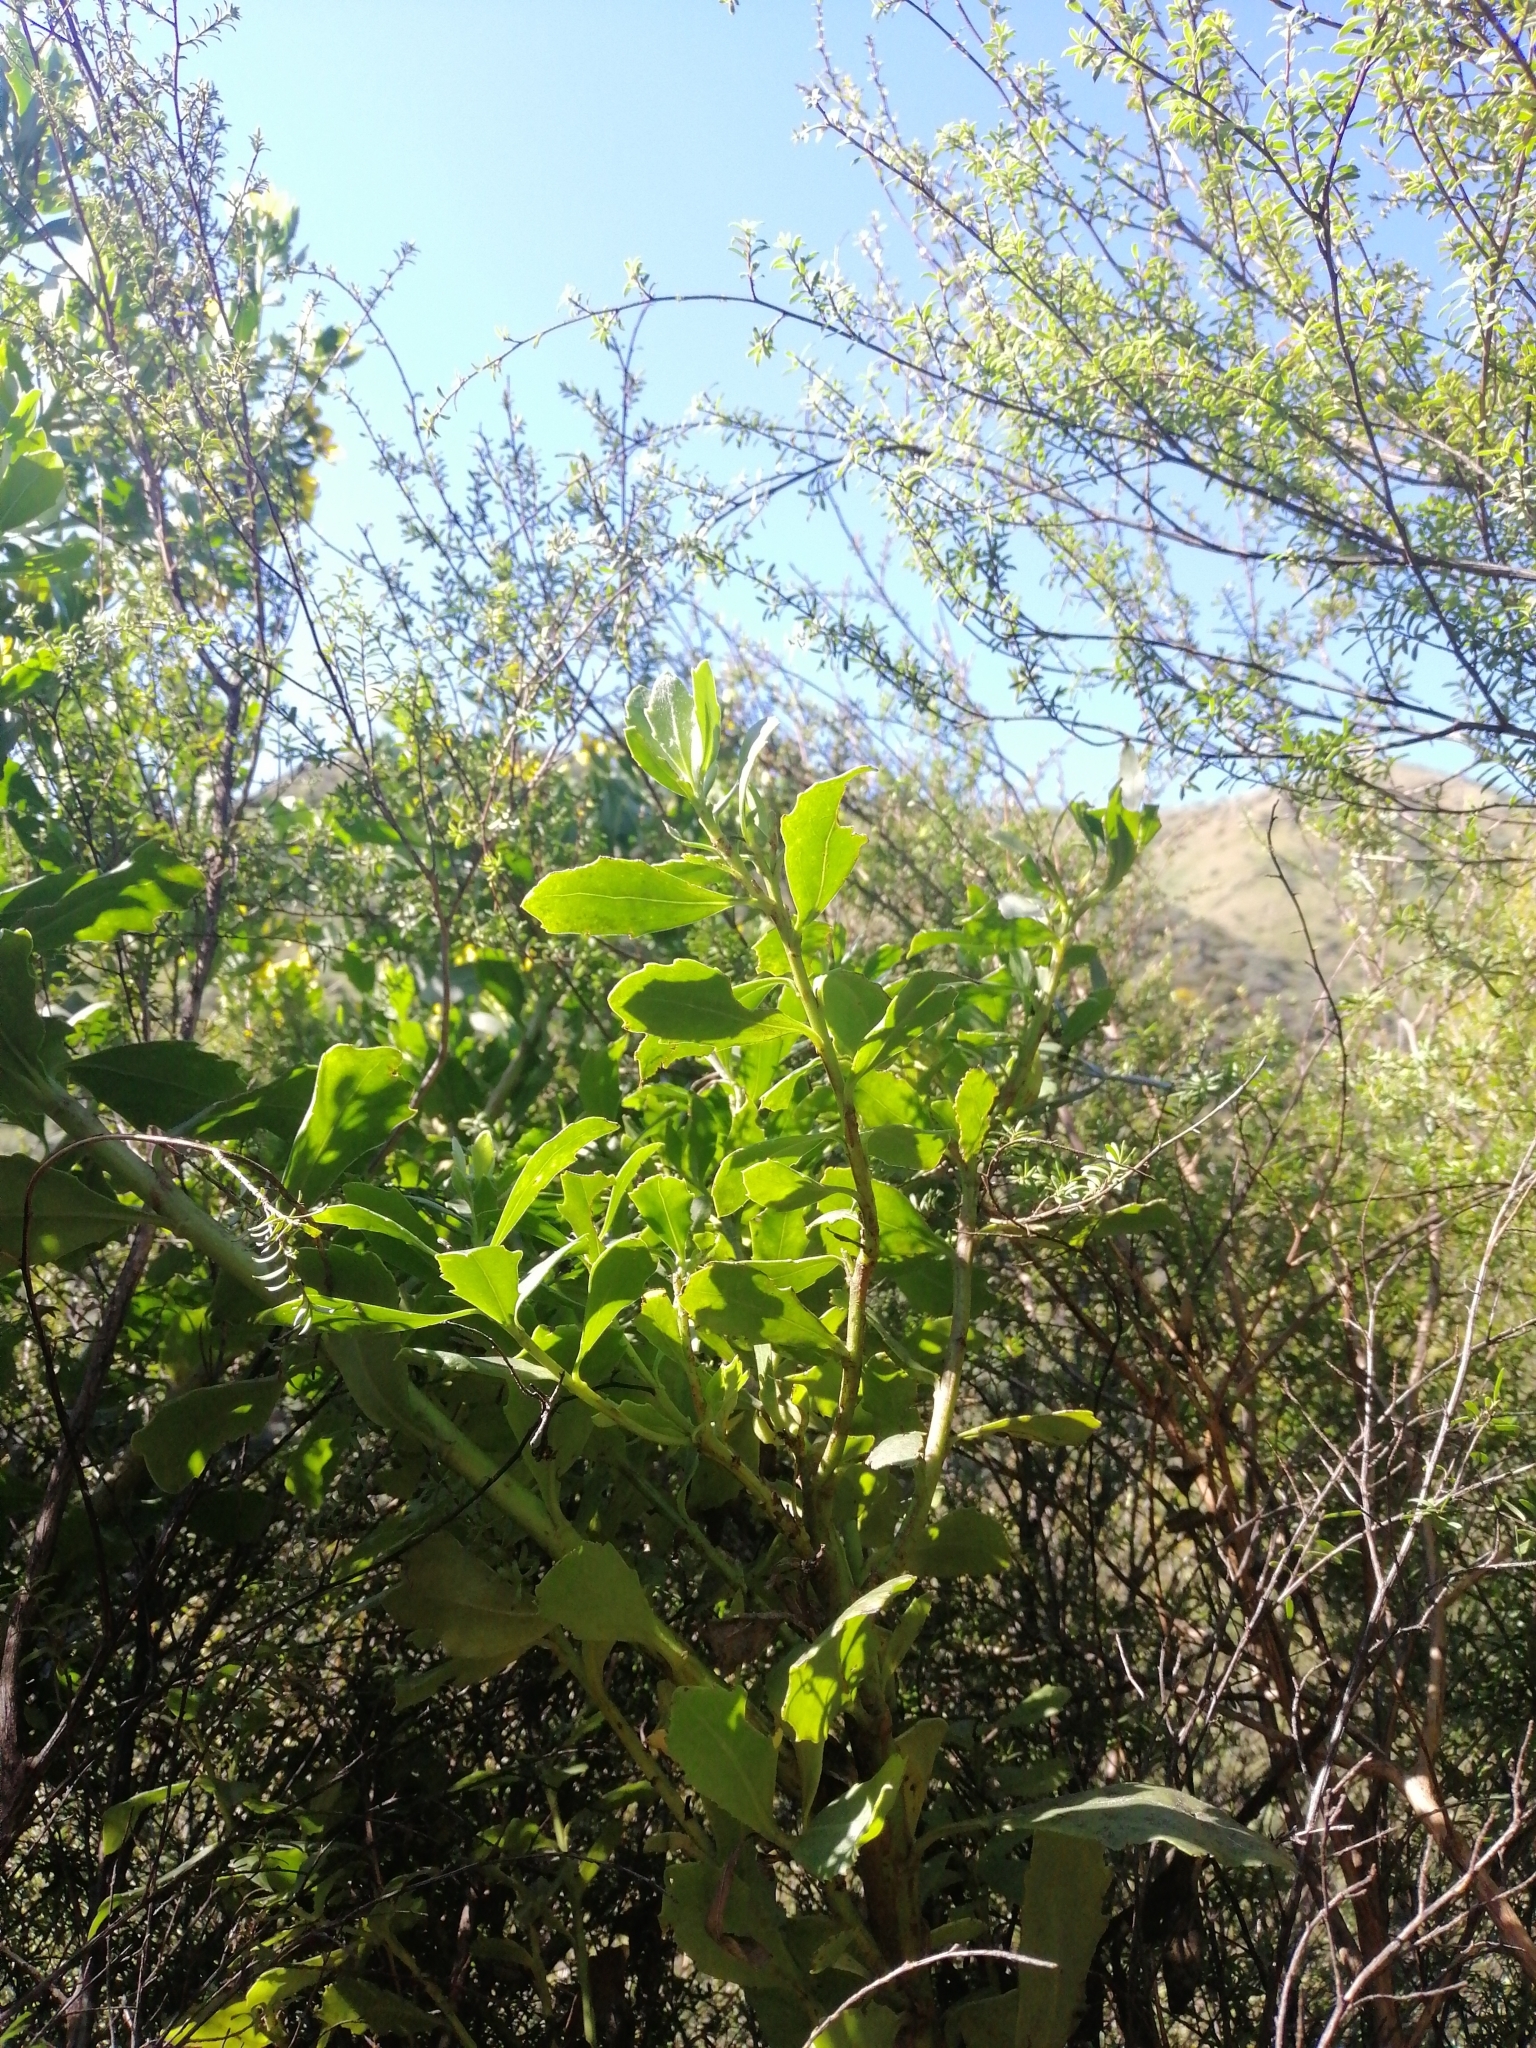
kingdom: Plantae
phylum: Tracheophyta
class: Magnoliopsida
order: Asterales
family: Asteraceae
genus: Osteospermum
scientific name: Osteospermum moniliferum
